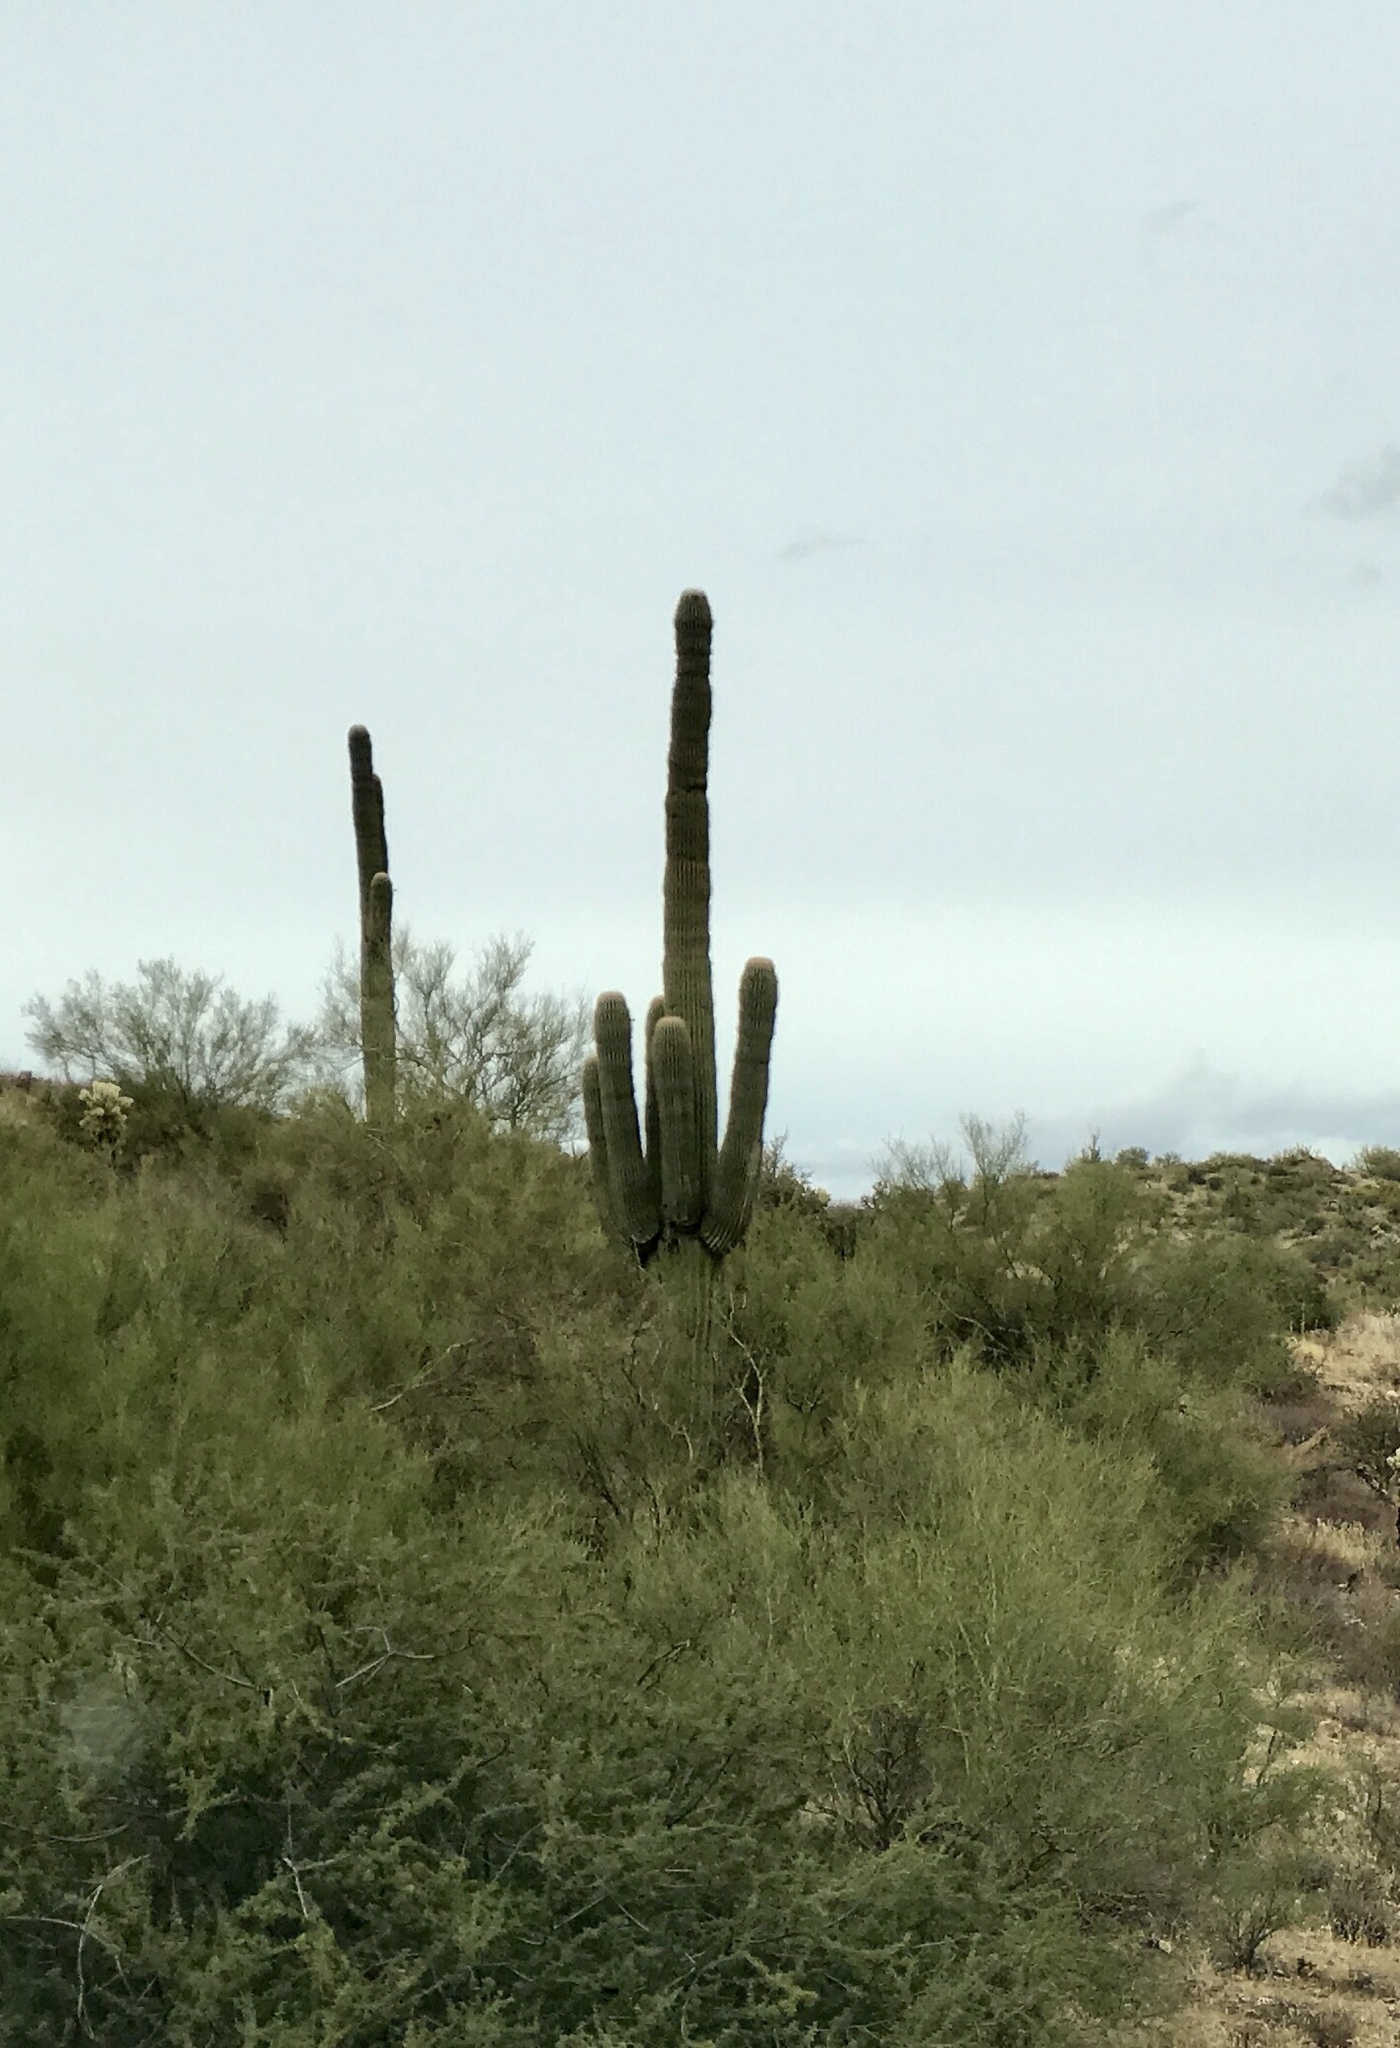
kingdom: Plantae
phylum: Tracheophyta
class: Magnoliopsida
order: Caryophyllales
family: Cactaceae
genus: Carnegiea
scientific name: Carnegiea gigantea
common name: Saguaro
